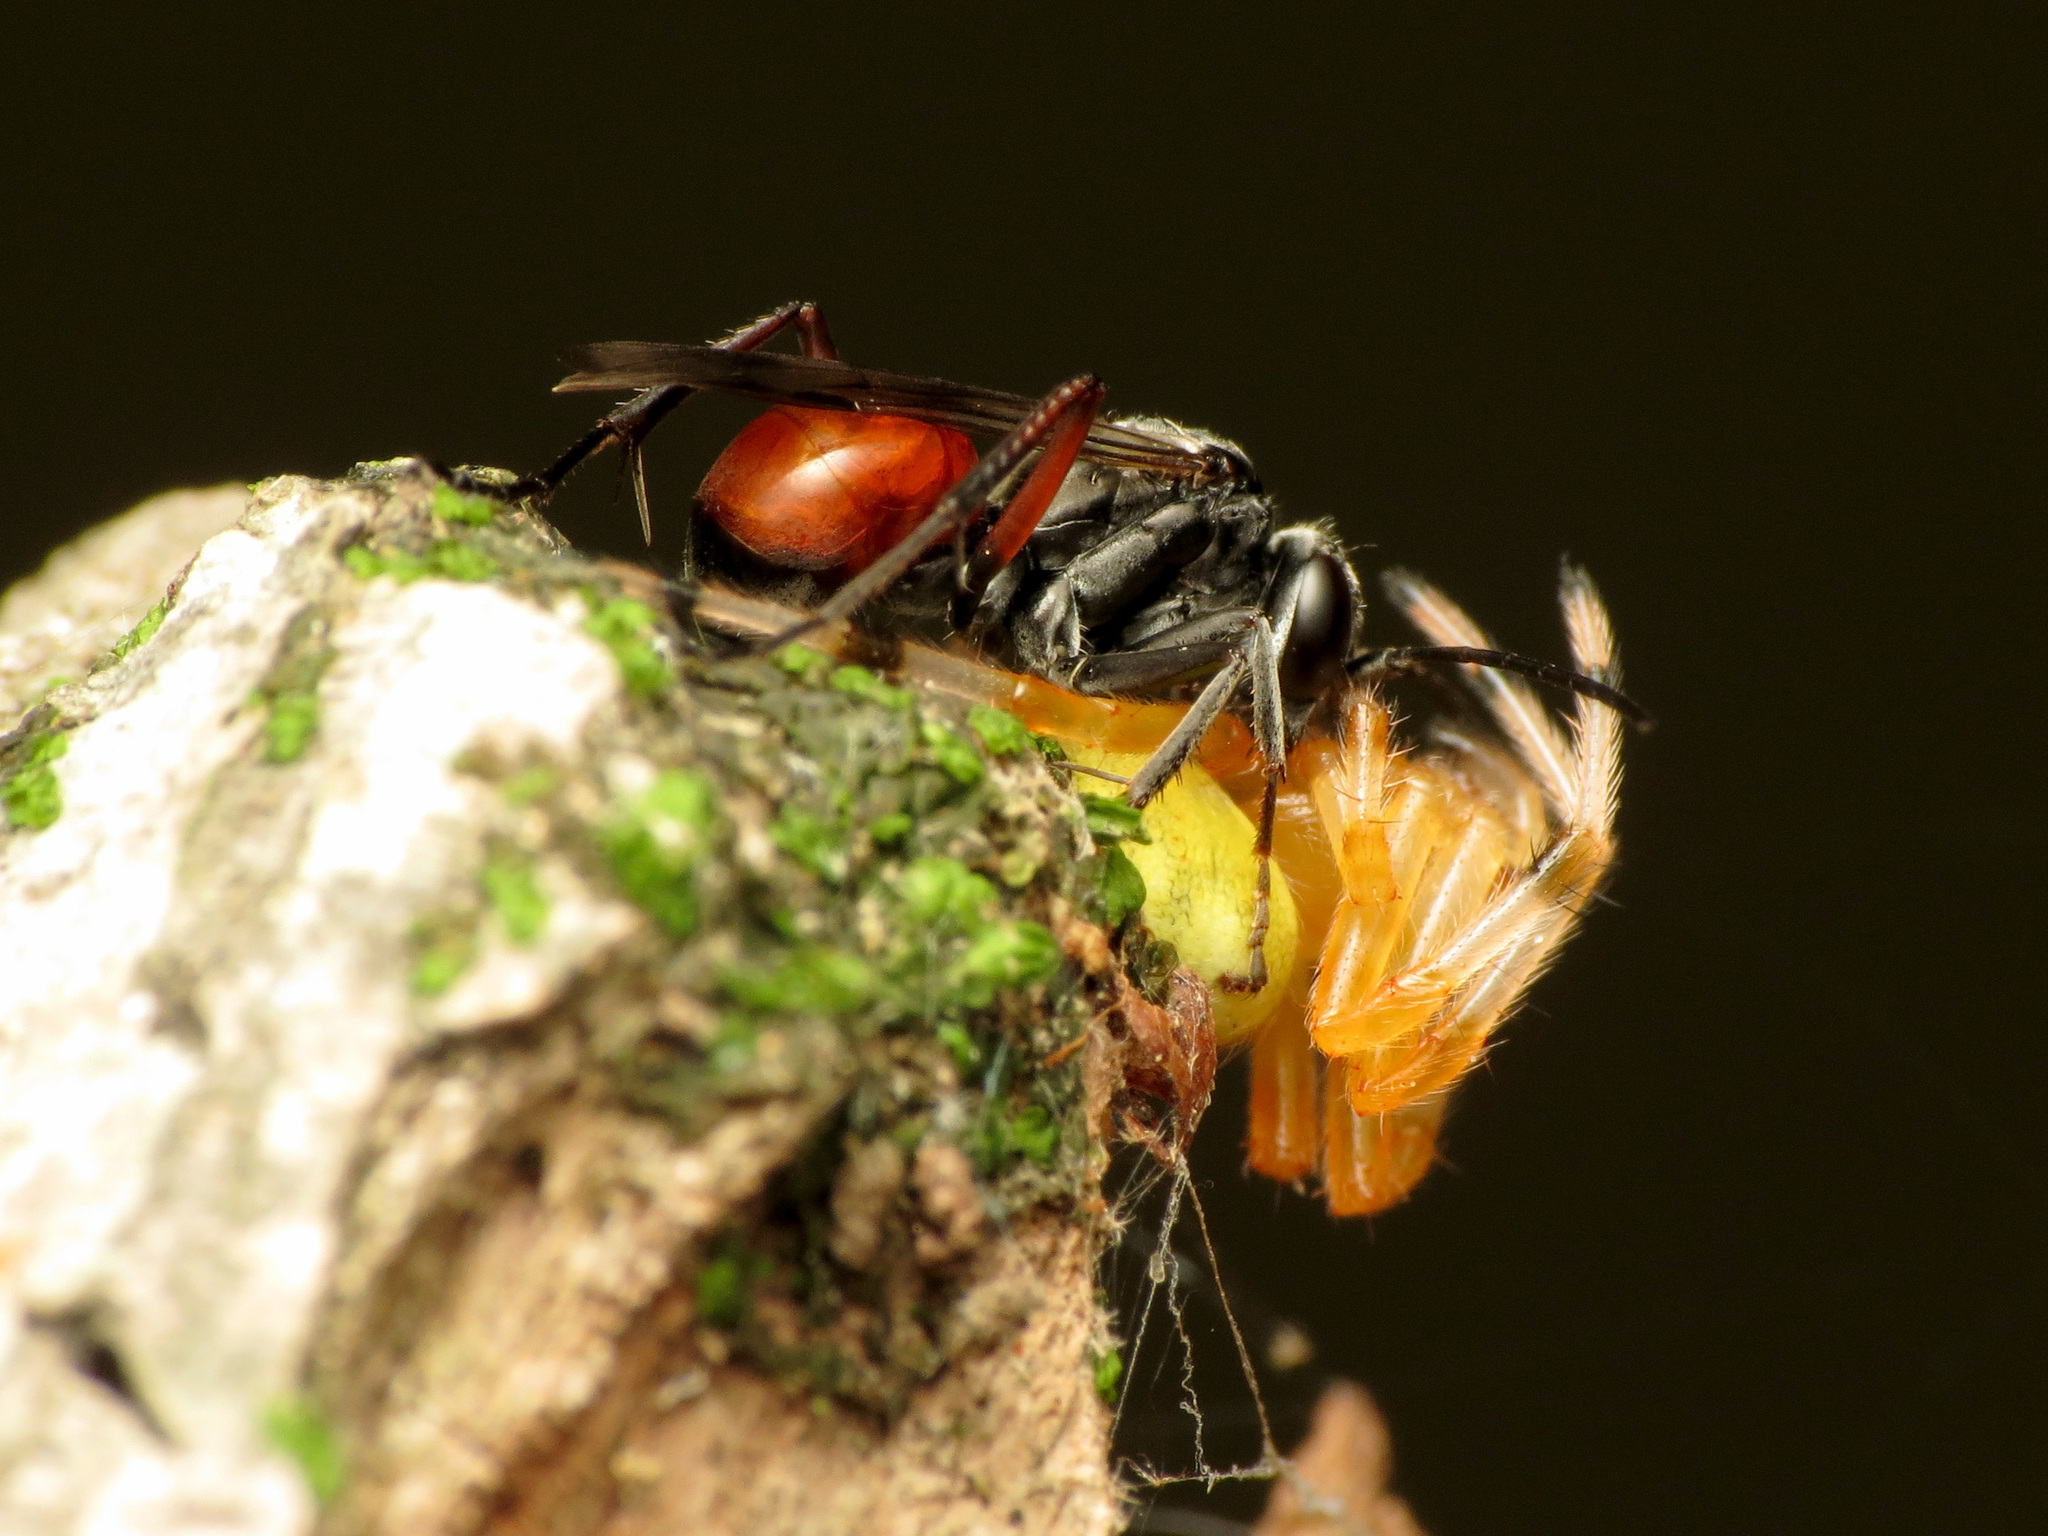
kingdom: Animalia
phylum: Arthropoda
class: Insecta
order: Hymenoptera
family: Pompilidae
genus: Caliadurgus
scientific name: Caliadurgus fasciatellus
